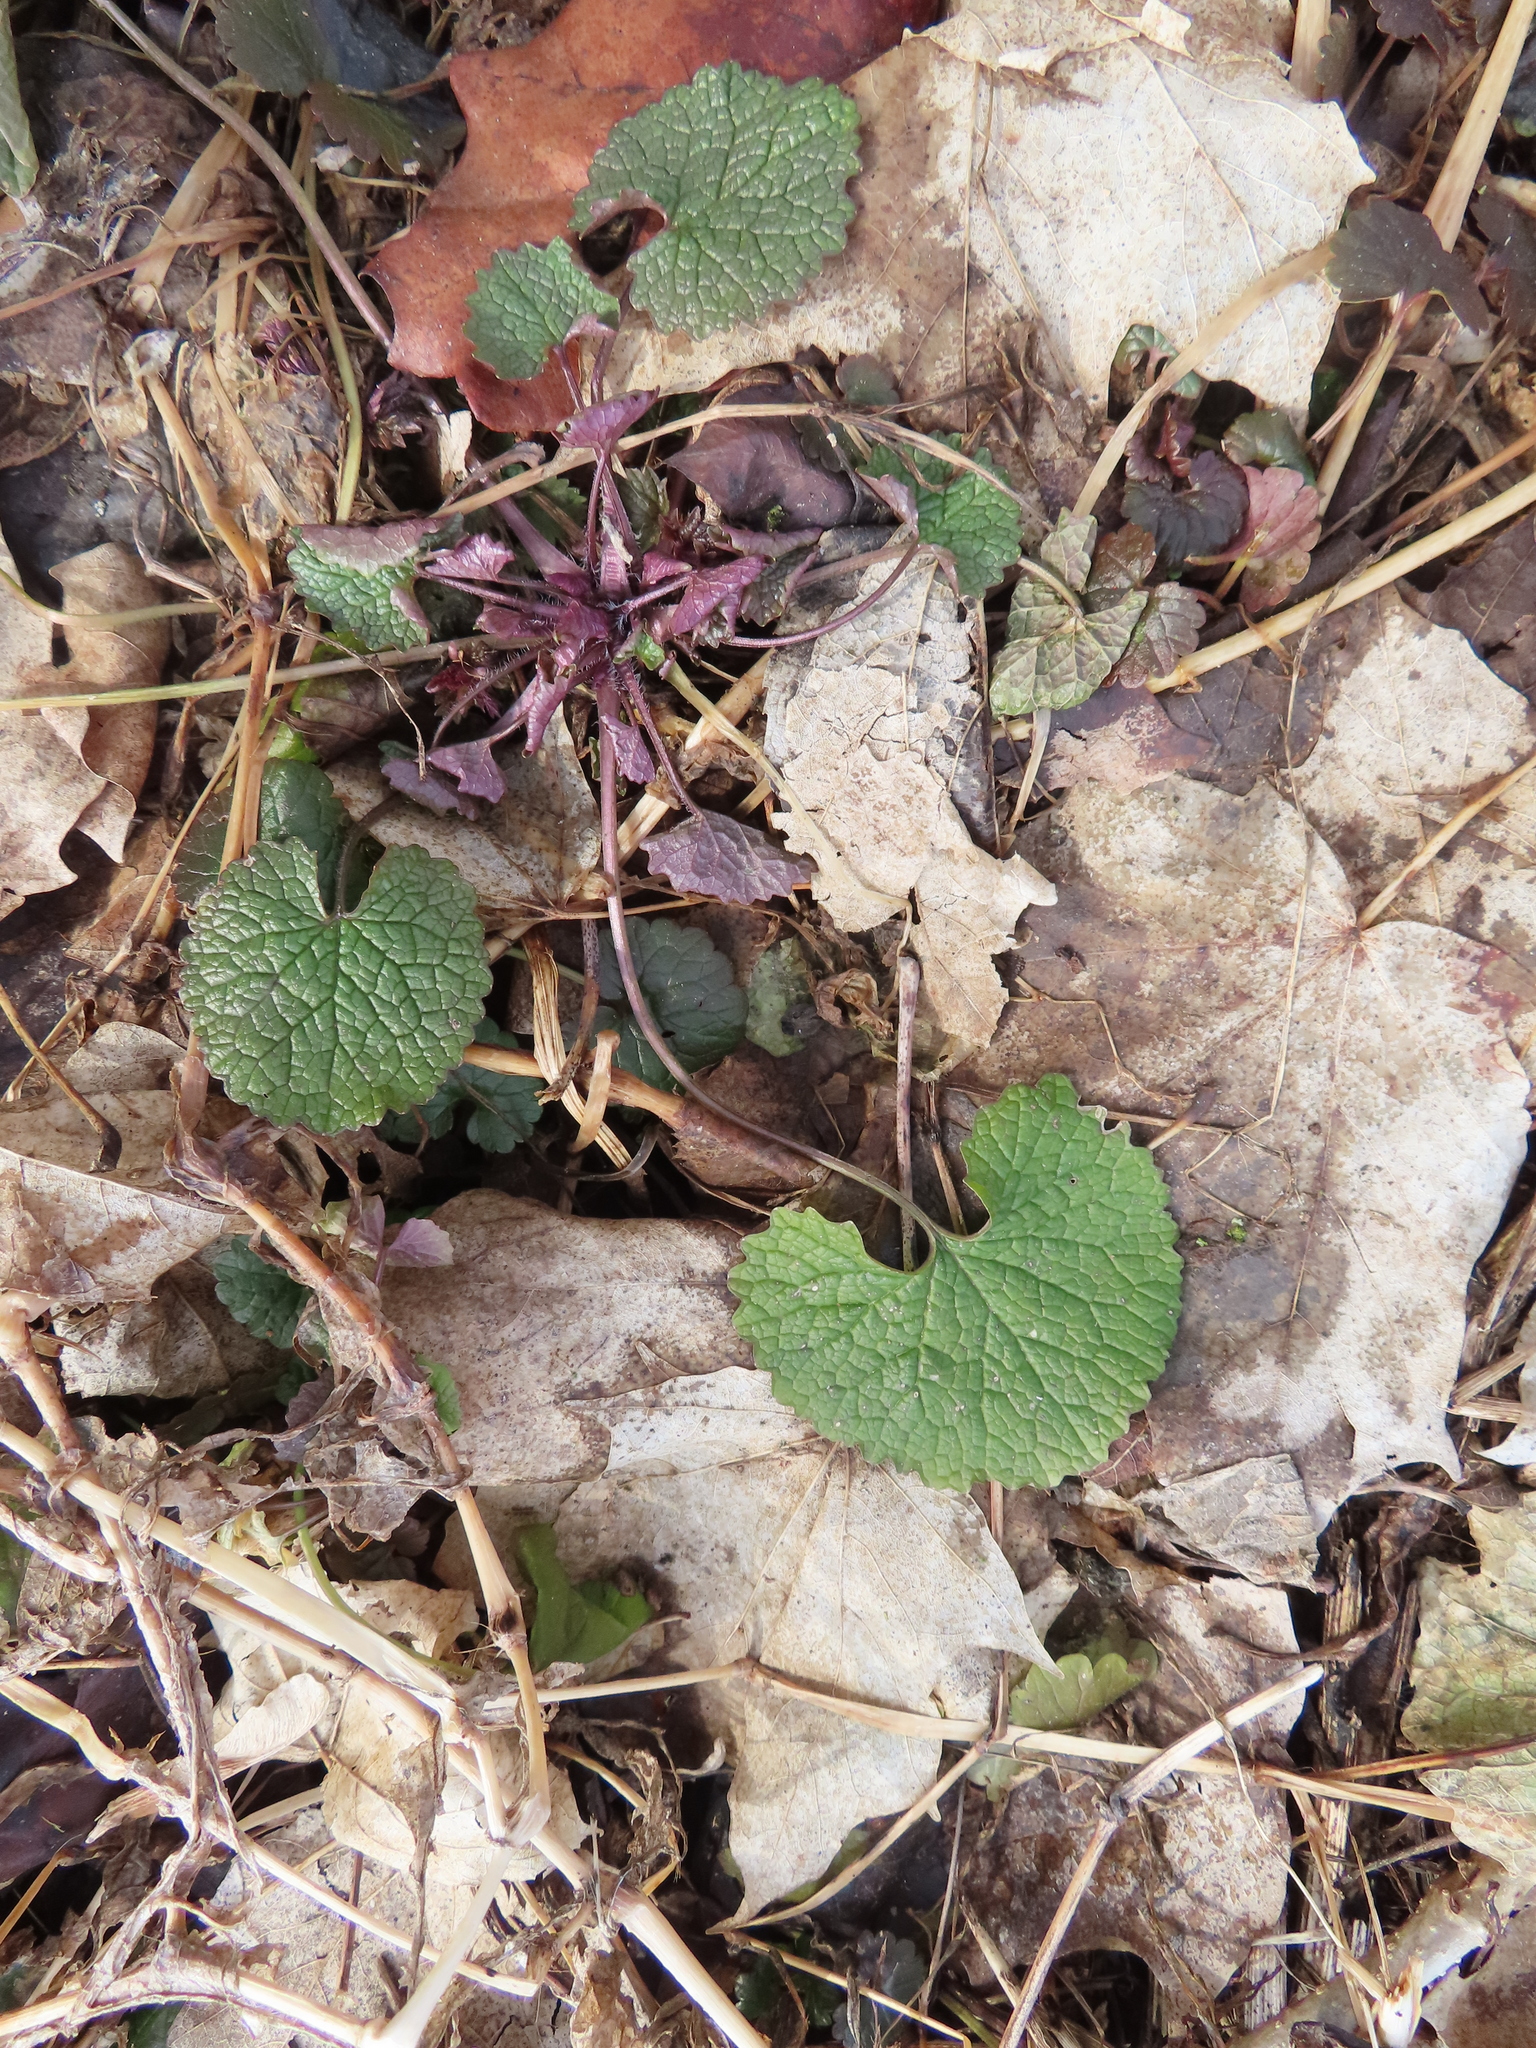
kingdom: Plantae
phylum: Tracheophyta
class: Magnoliopsida
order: Brassicales
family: Brassicaceae
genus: Alliaria
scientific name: Alliaria petiolata
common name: Garlic mustard
